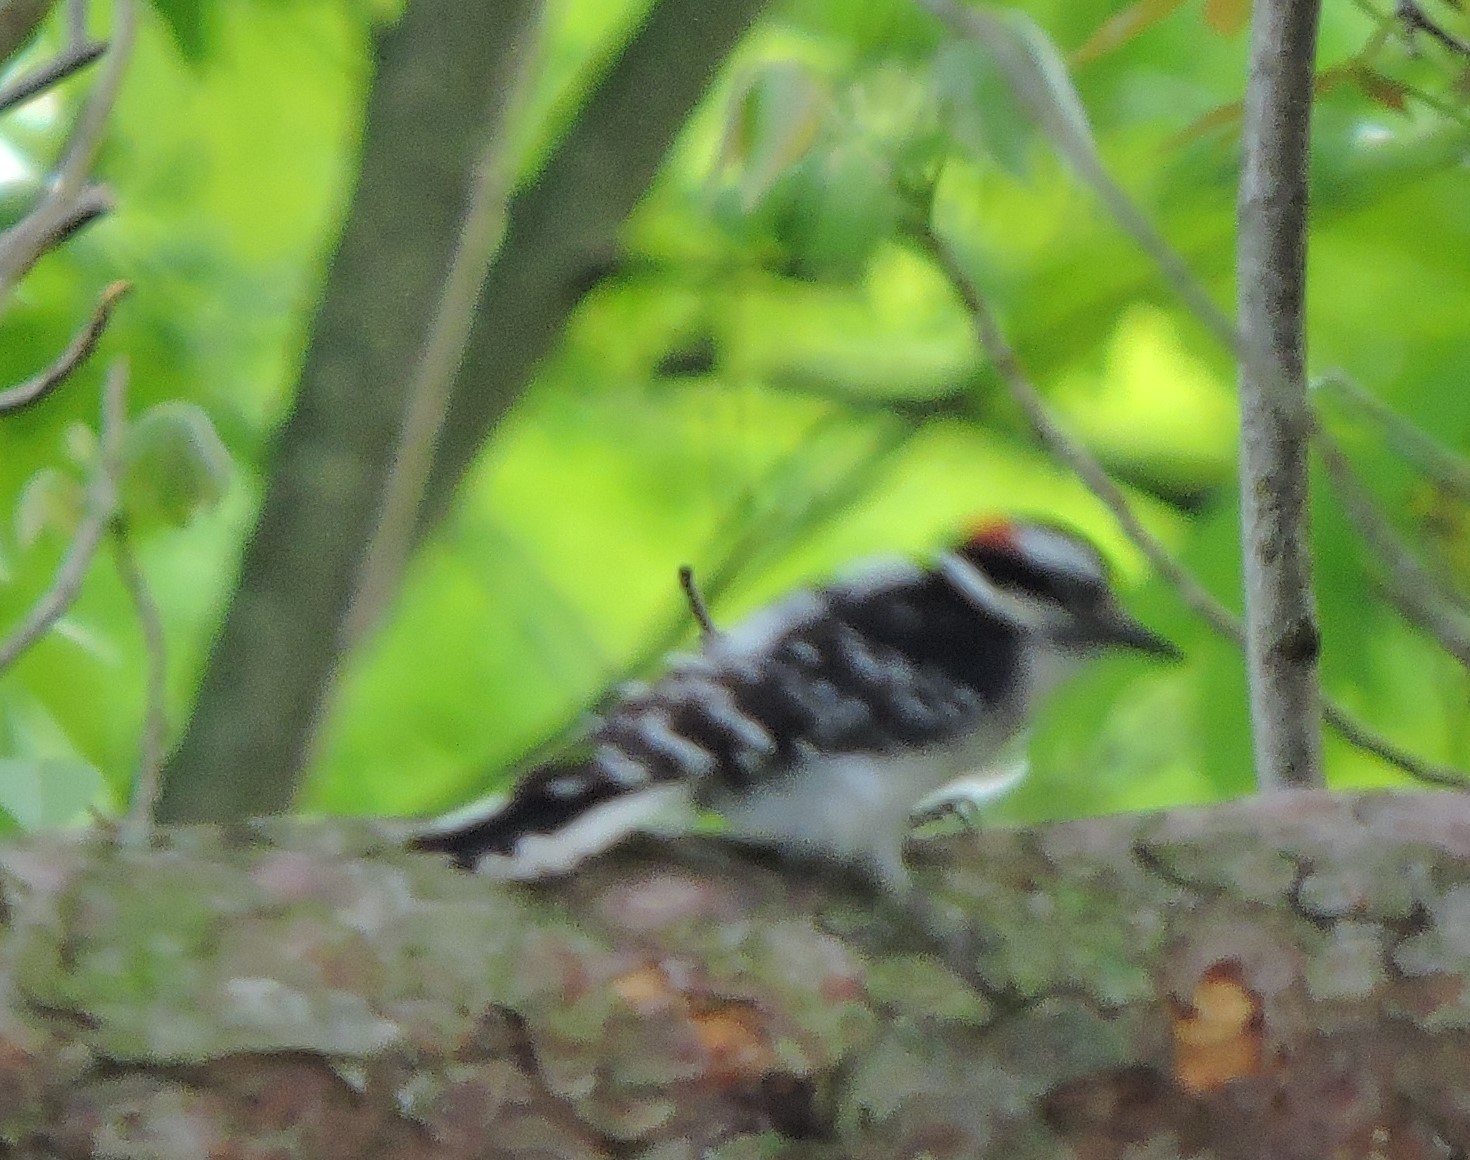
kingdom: Animalia
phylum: Chordata
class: Aves
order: Piciformes
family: Picidae
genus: Leuconotopicus
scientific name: Leuconotopicus villosus
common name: Hairy woodpecker
